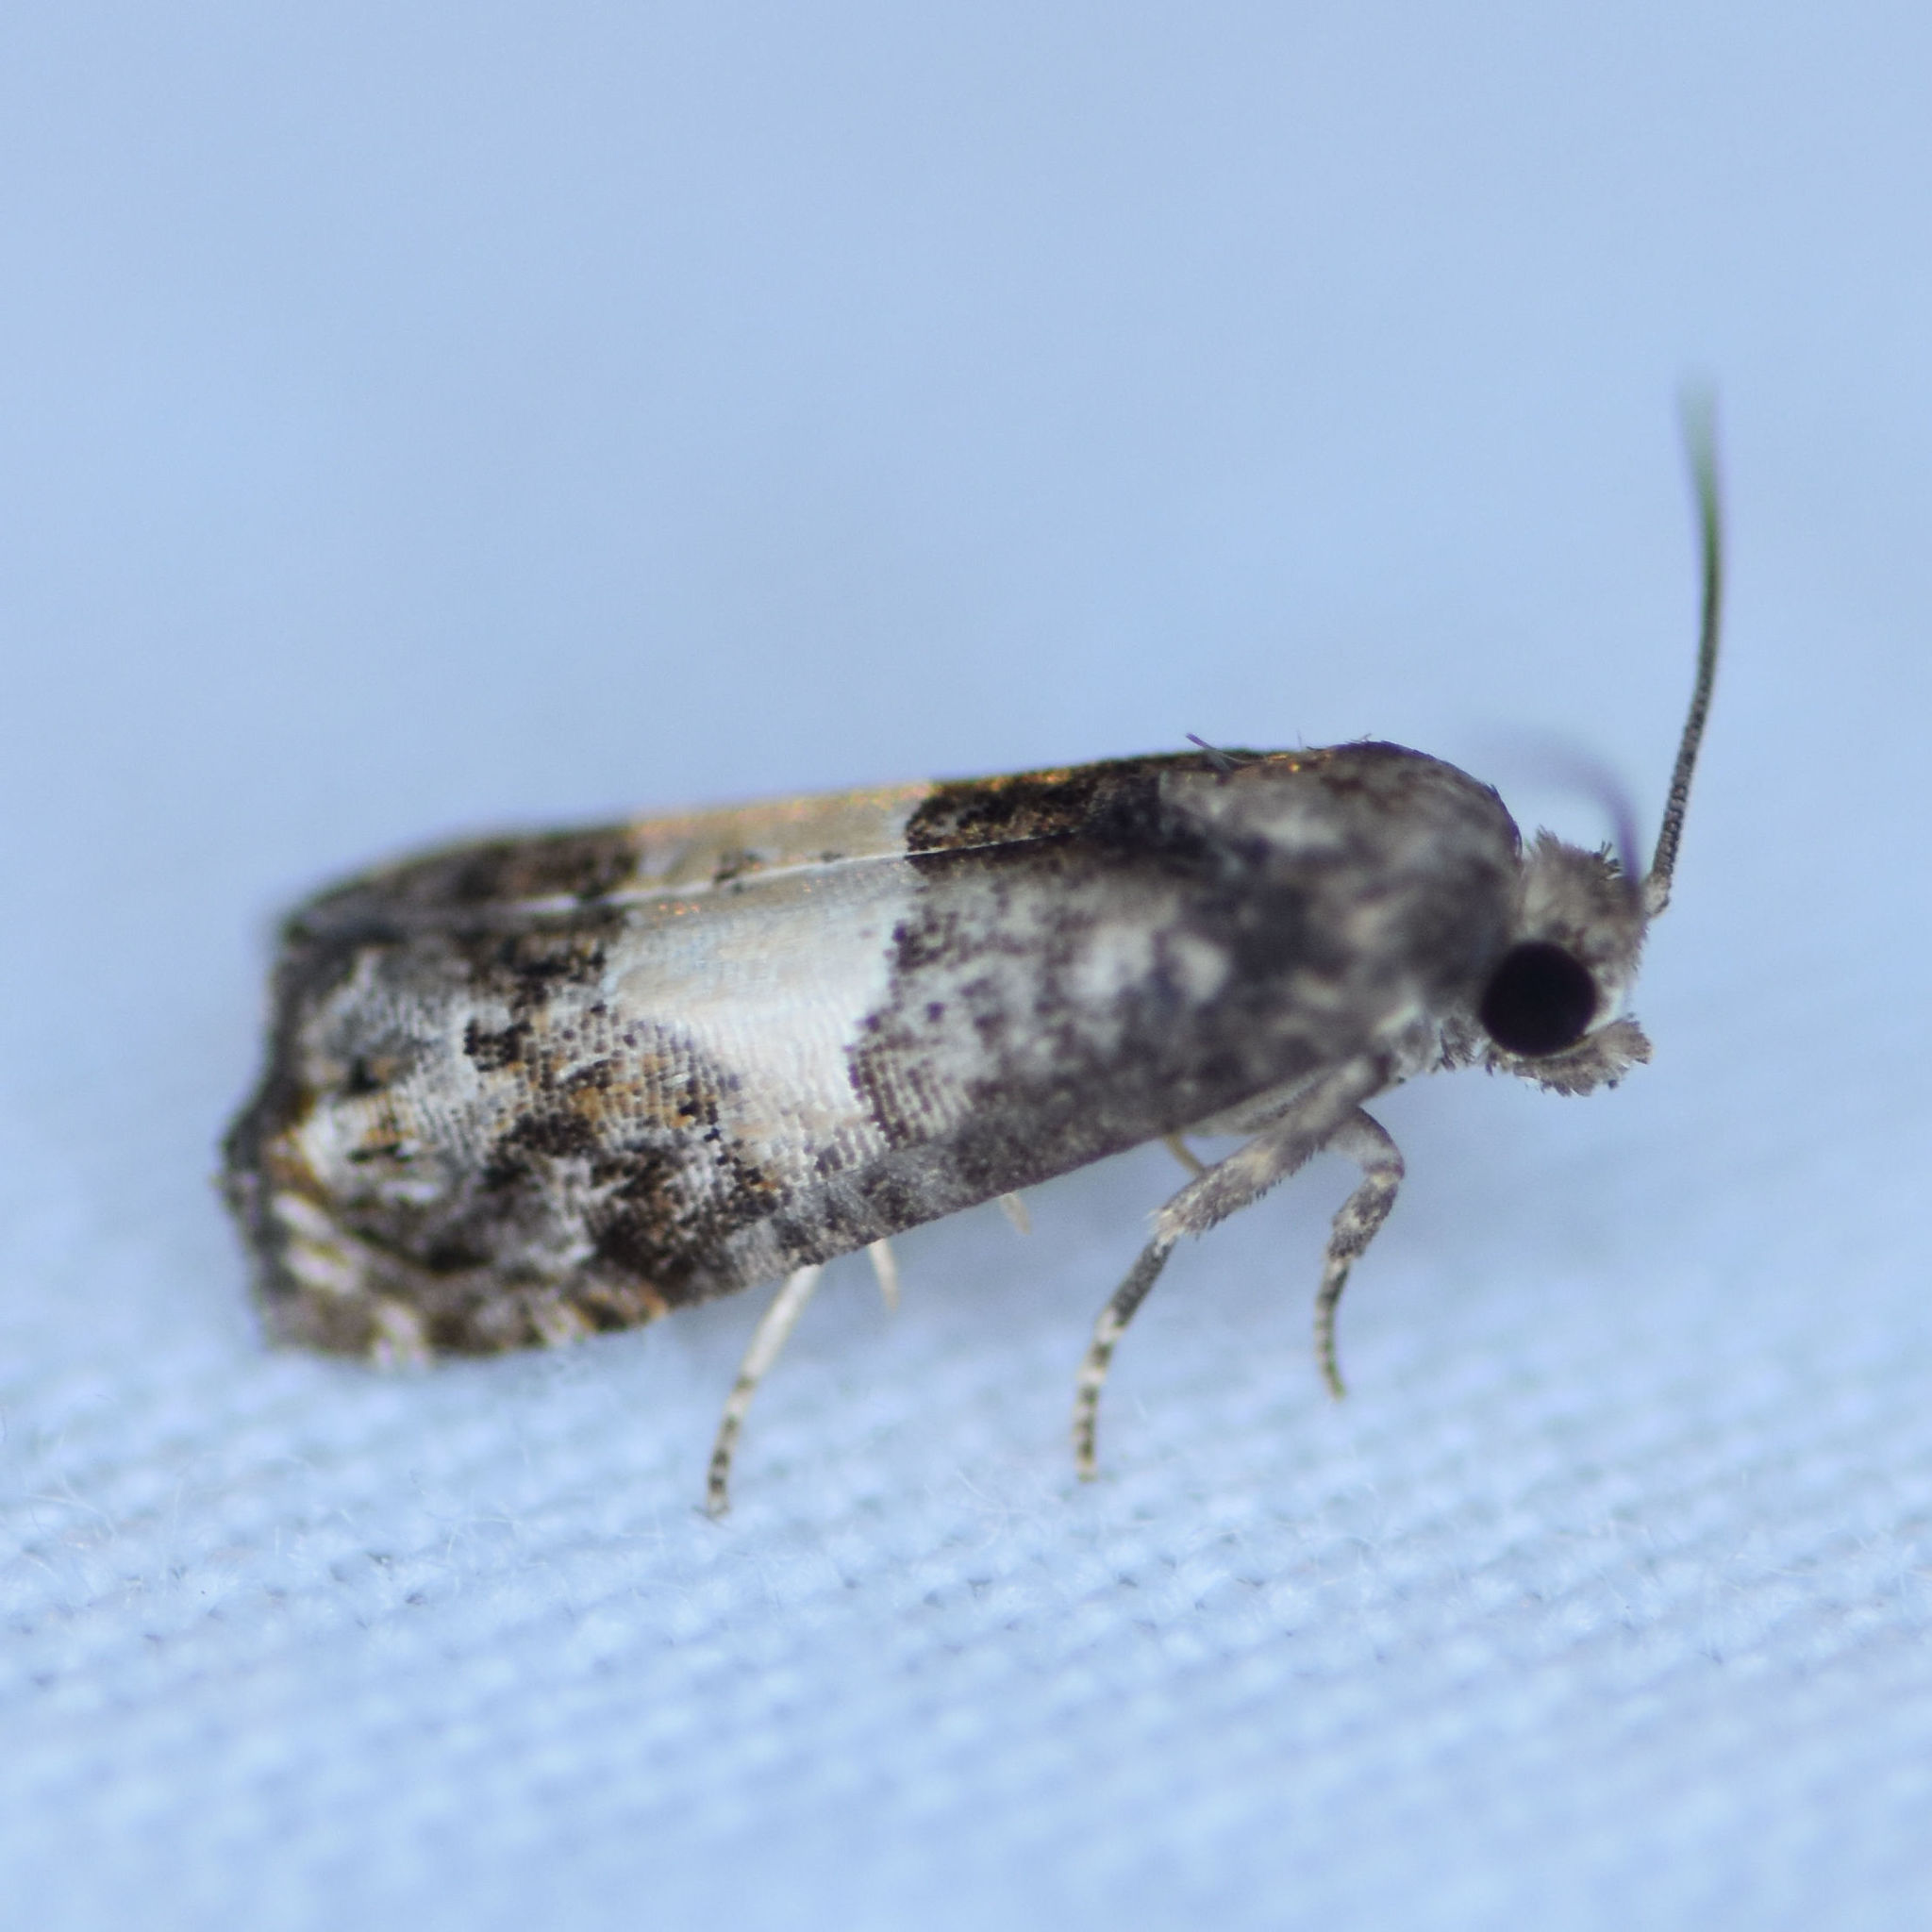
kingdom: Animalia
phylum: Arthropoda
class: Insecta
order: Lepidoptera
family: Tortricidae
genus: Epiblema
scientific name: Epiblema glenni
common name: Glenn's epiblema
